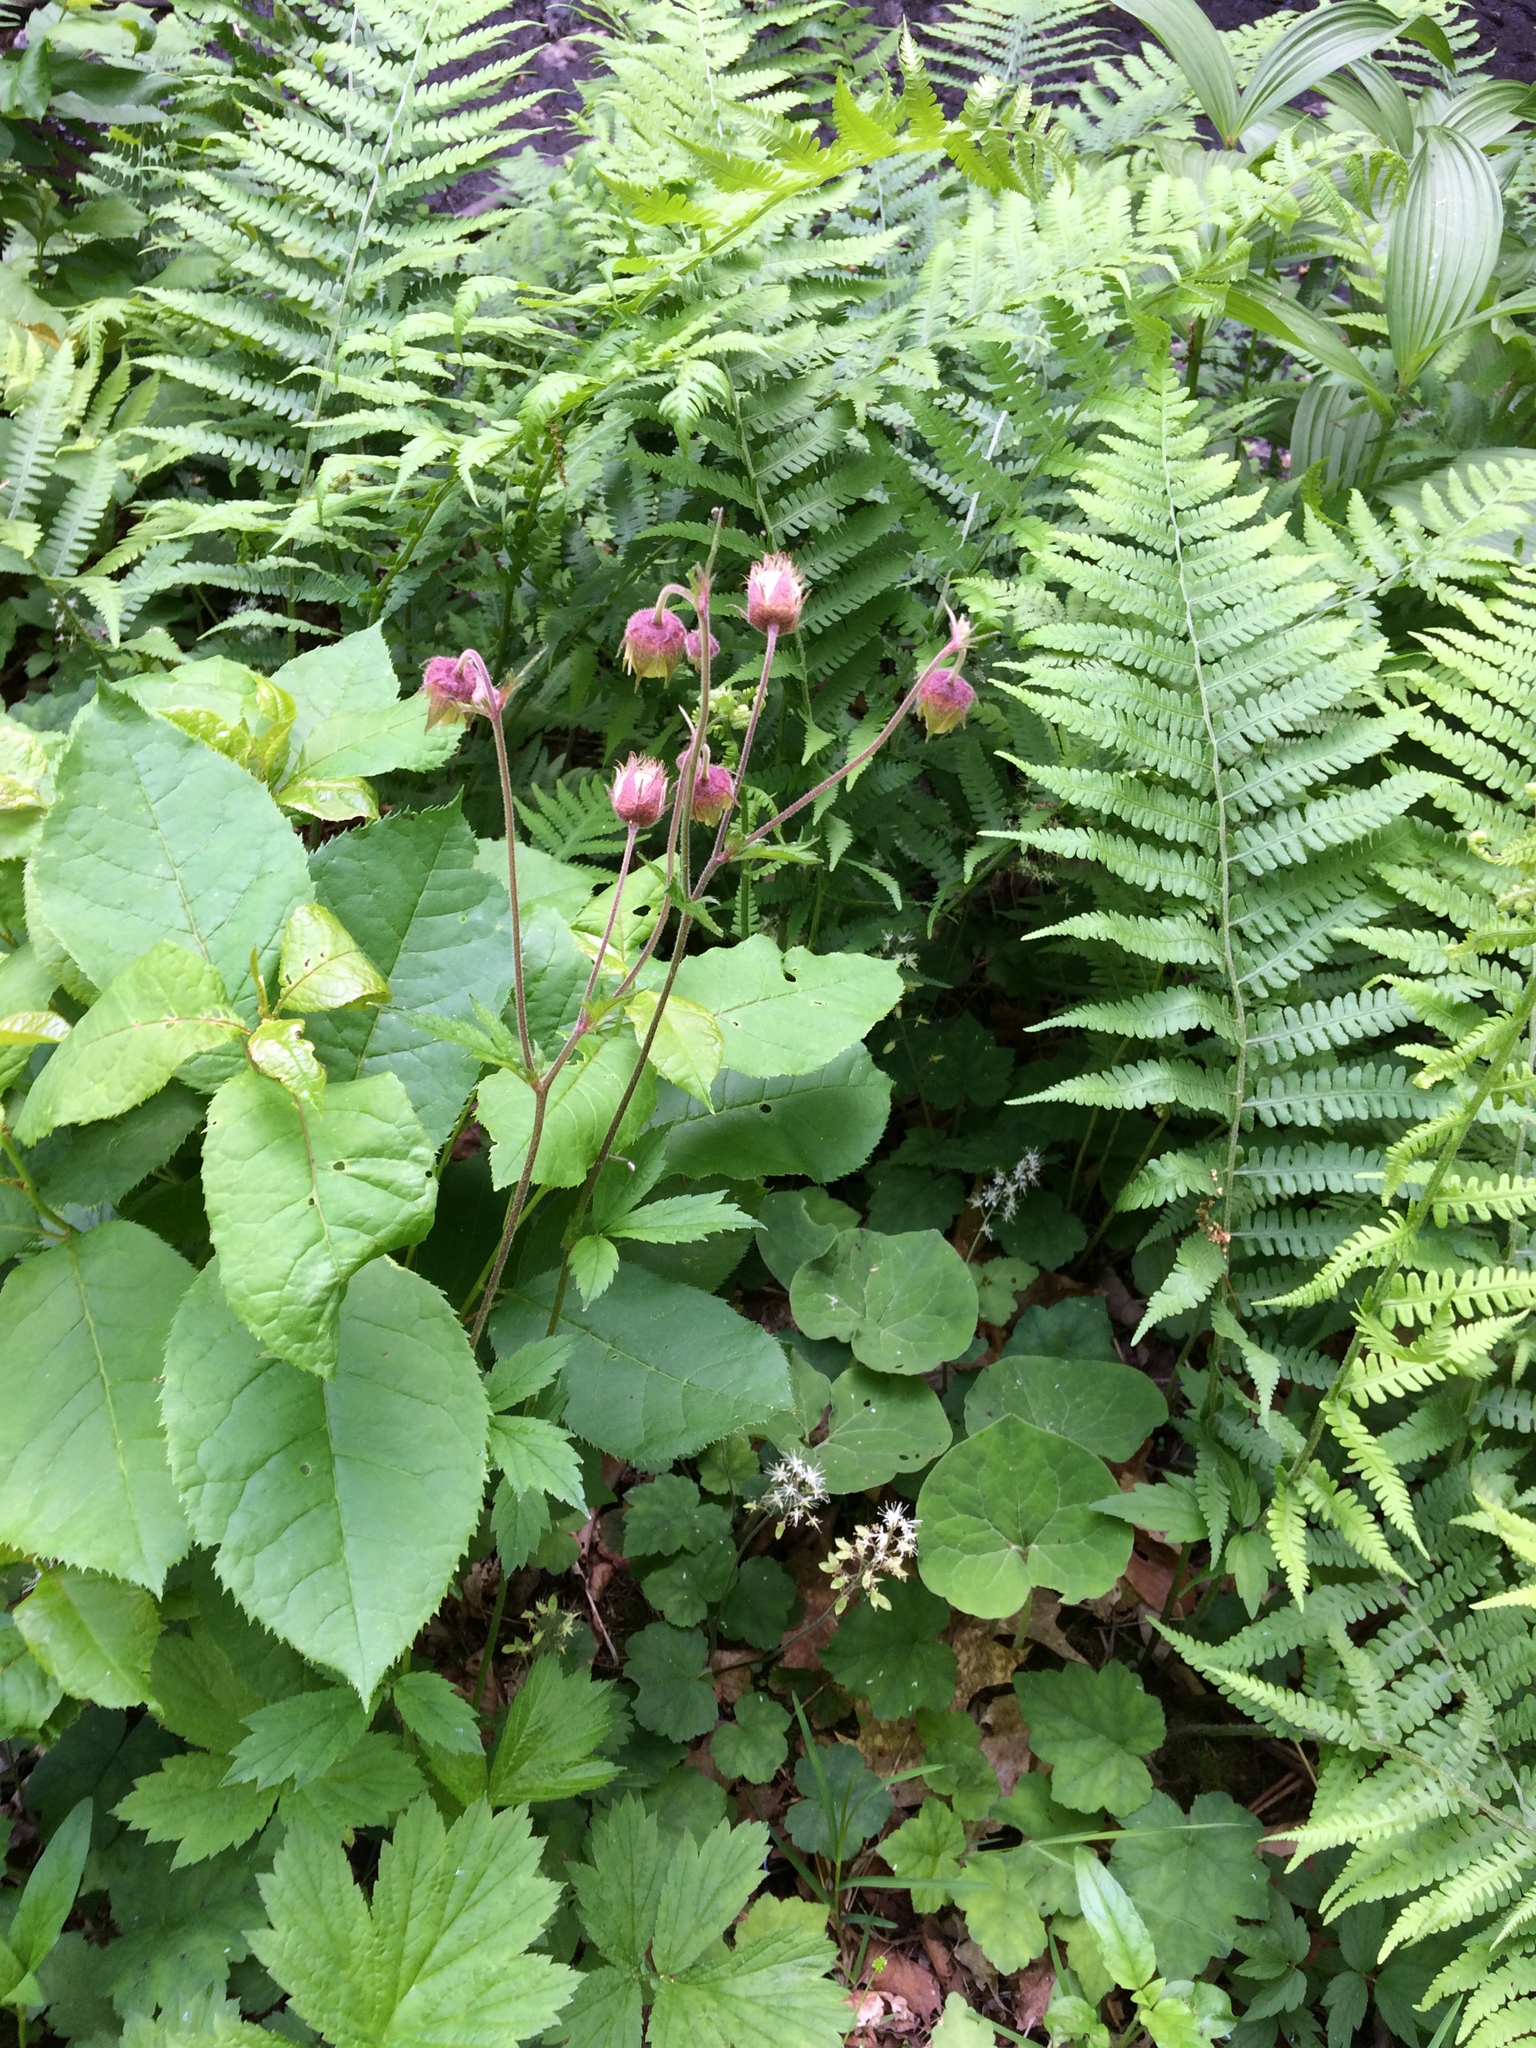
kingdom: Plantae
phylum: Tracheophyta
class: Magnoliopsida
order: Rosales
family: Rosaceae
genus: Geum
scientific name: Geum rivale
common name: Water avens
